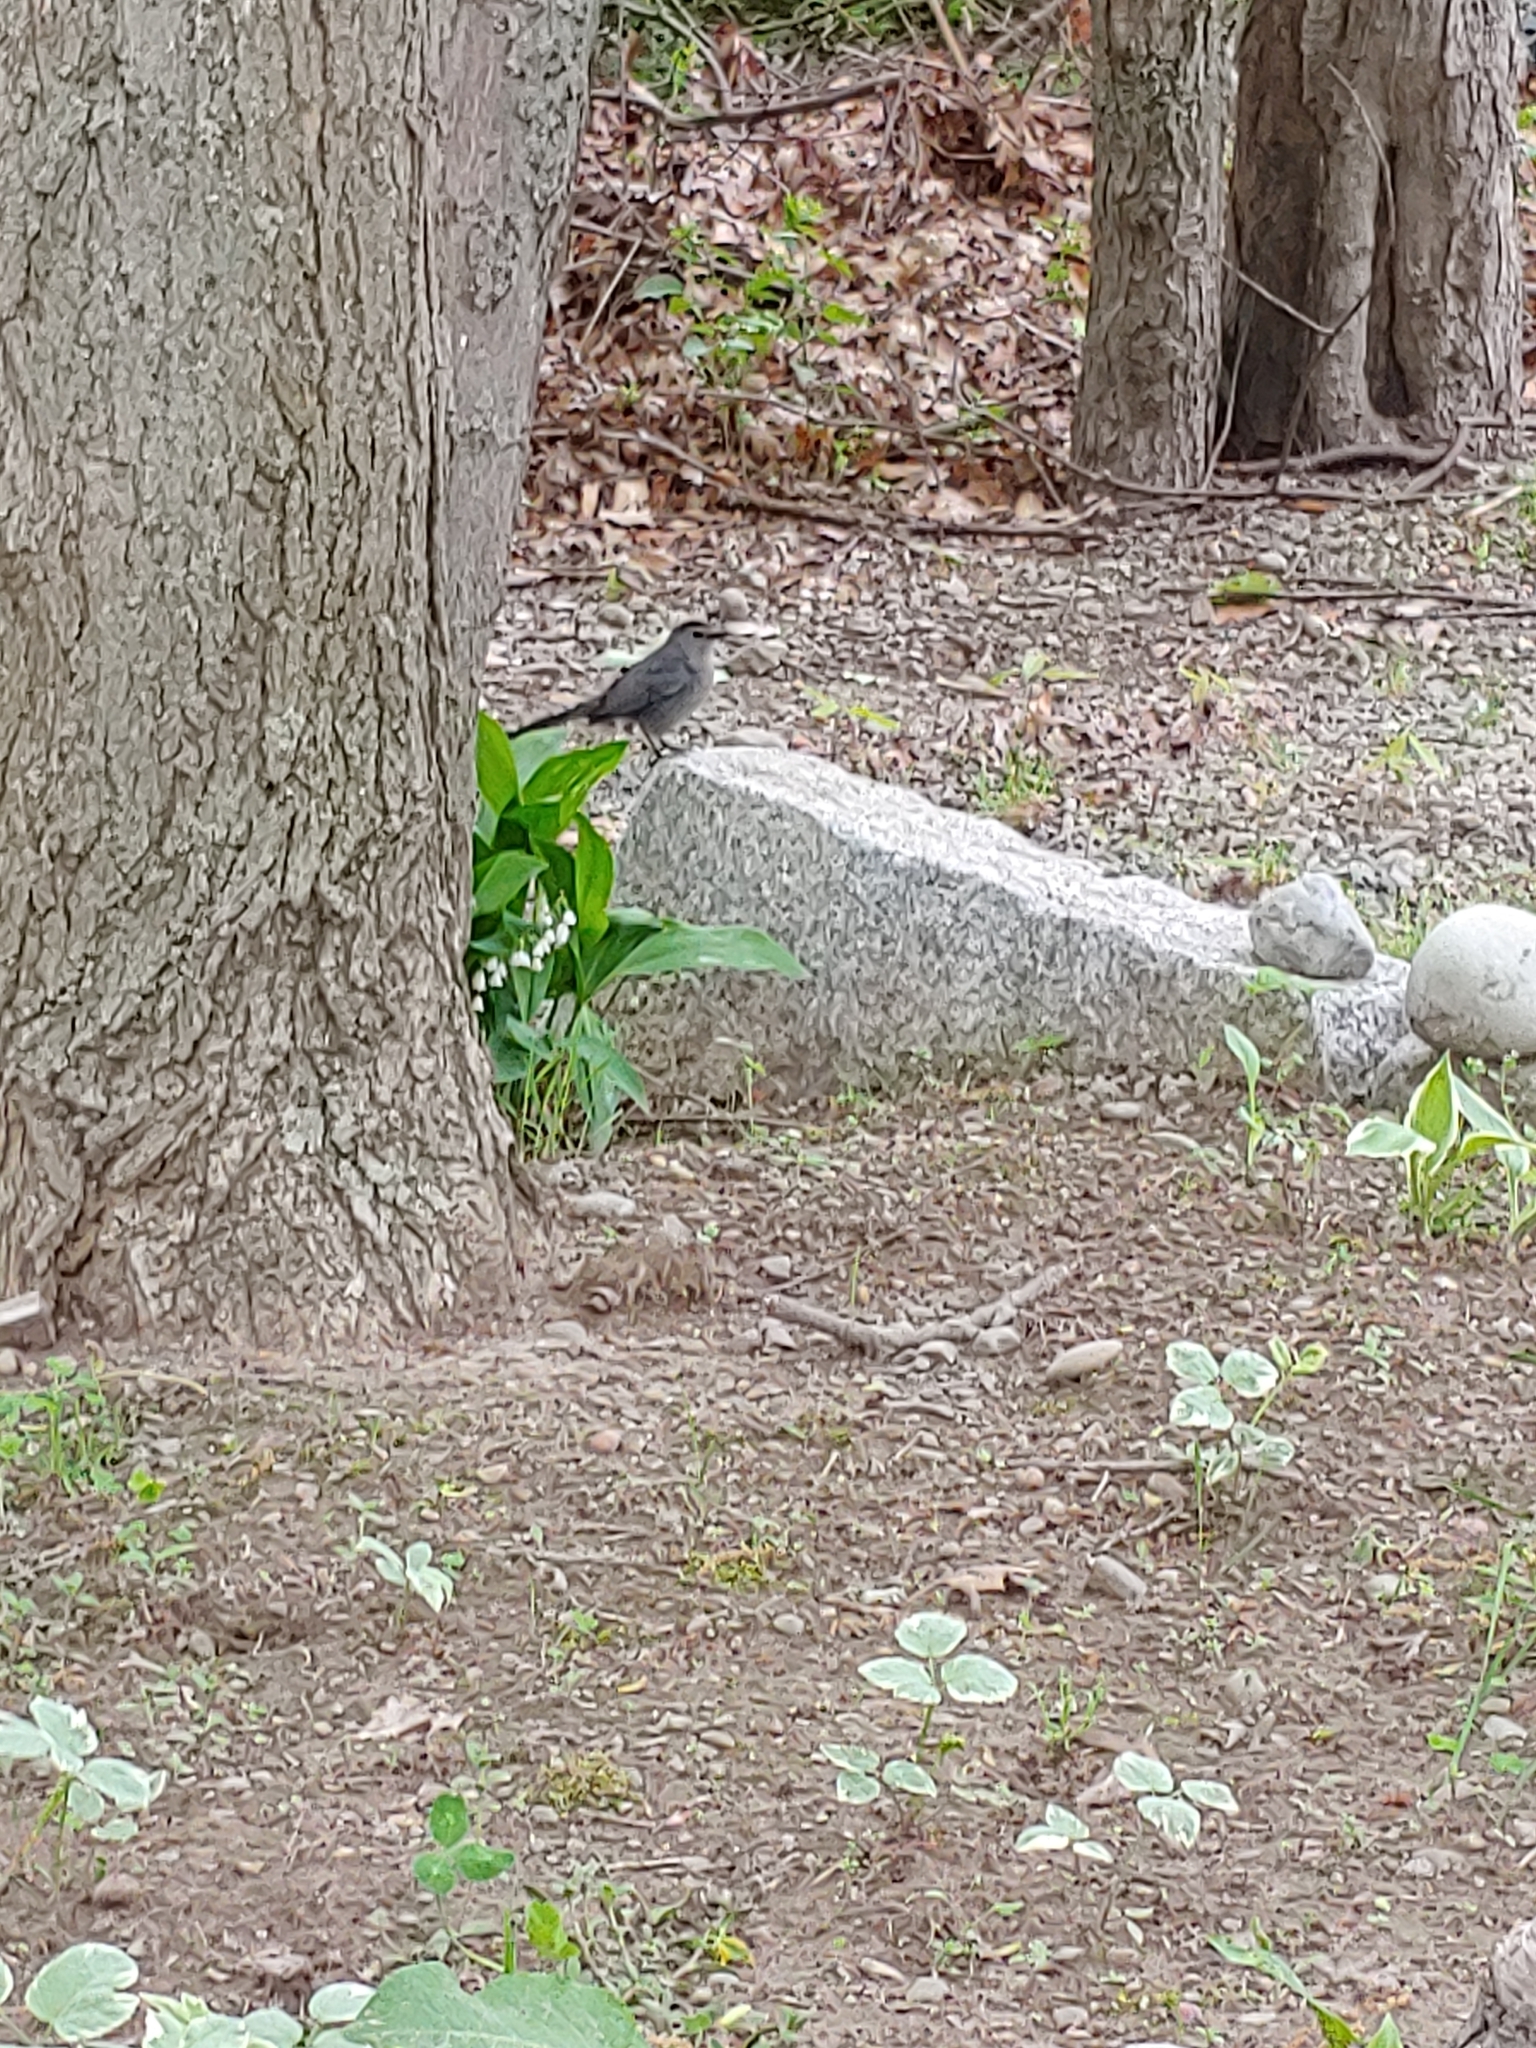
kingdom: Animalia
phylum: Chordata
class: Aves
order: Passeriformes
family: Mimidae
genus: Dumetella
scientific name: Dumetella carolinensis
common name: Gray catbird
